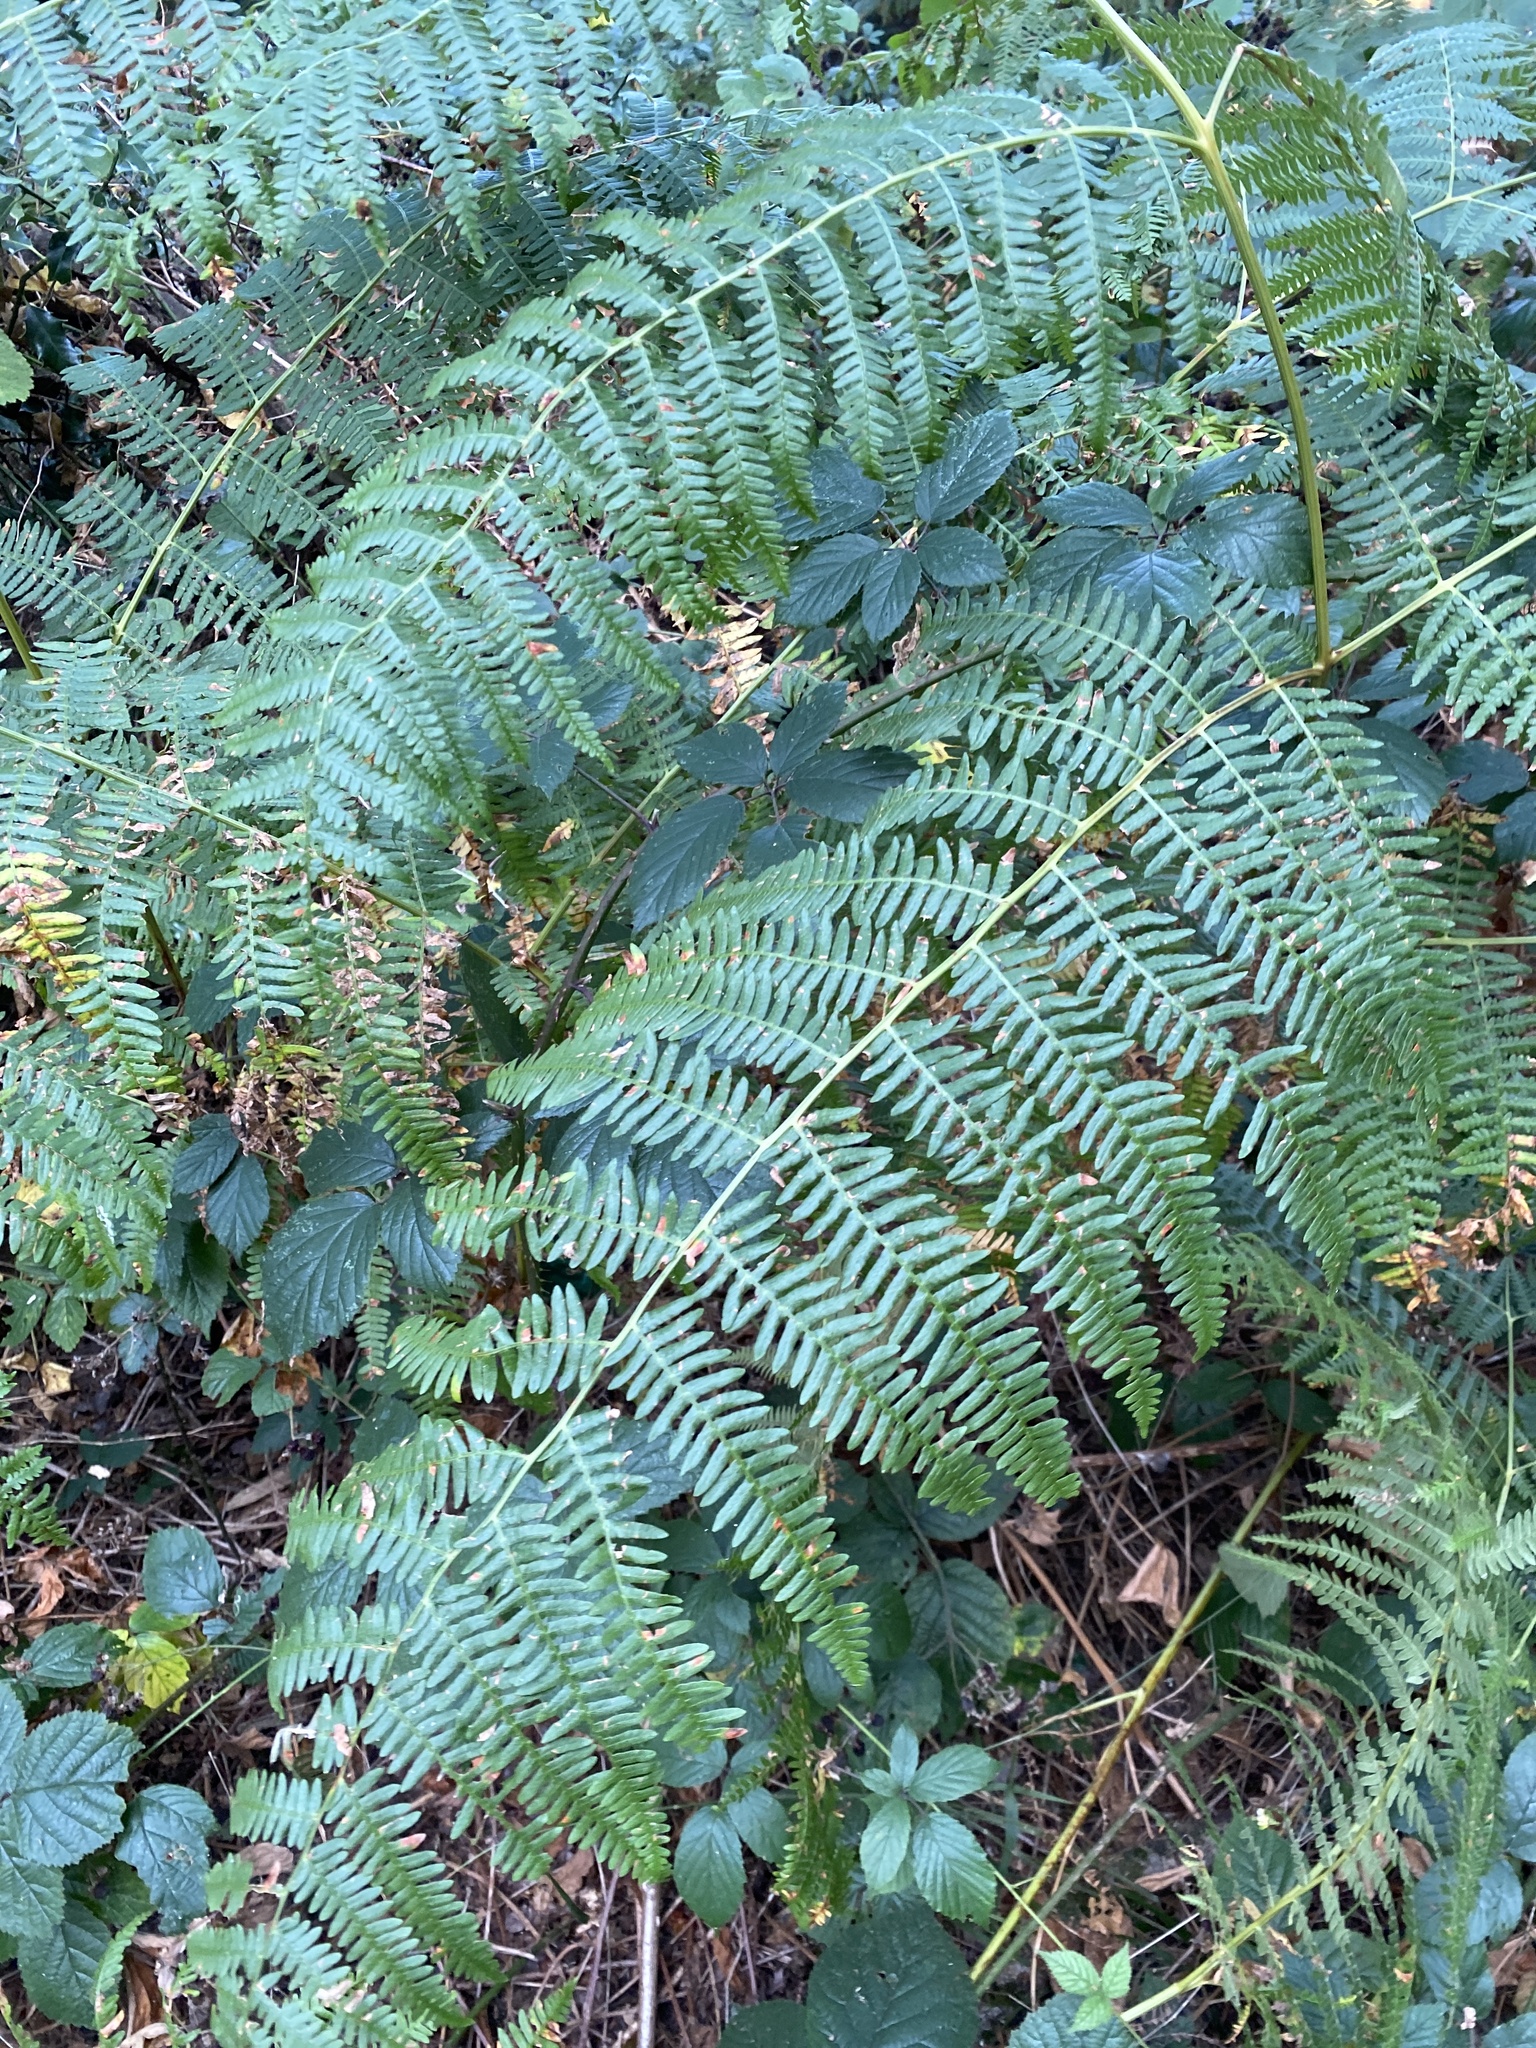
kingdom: Plantae
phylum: Tracheophyta
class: Polypodiopsida
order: Polypodiales
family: Dennstaedtiaceae
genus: Pteridium
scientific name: Pteridium aquilinum
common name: Bracken
